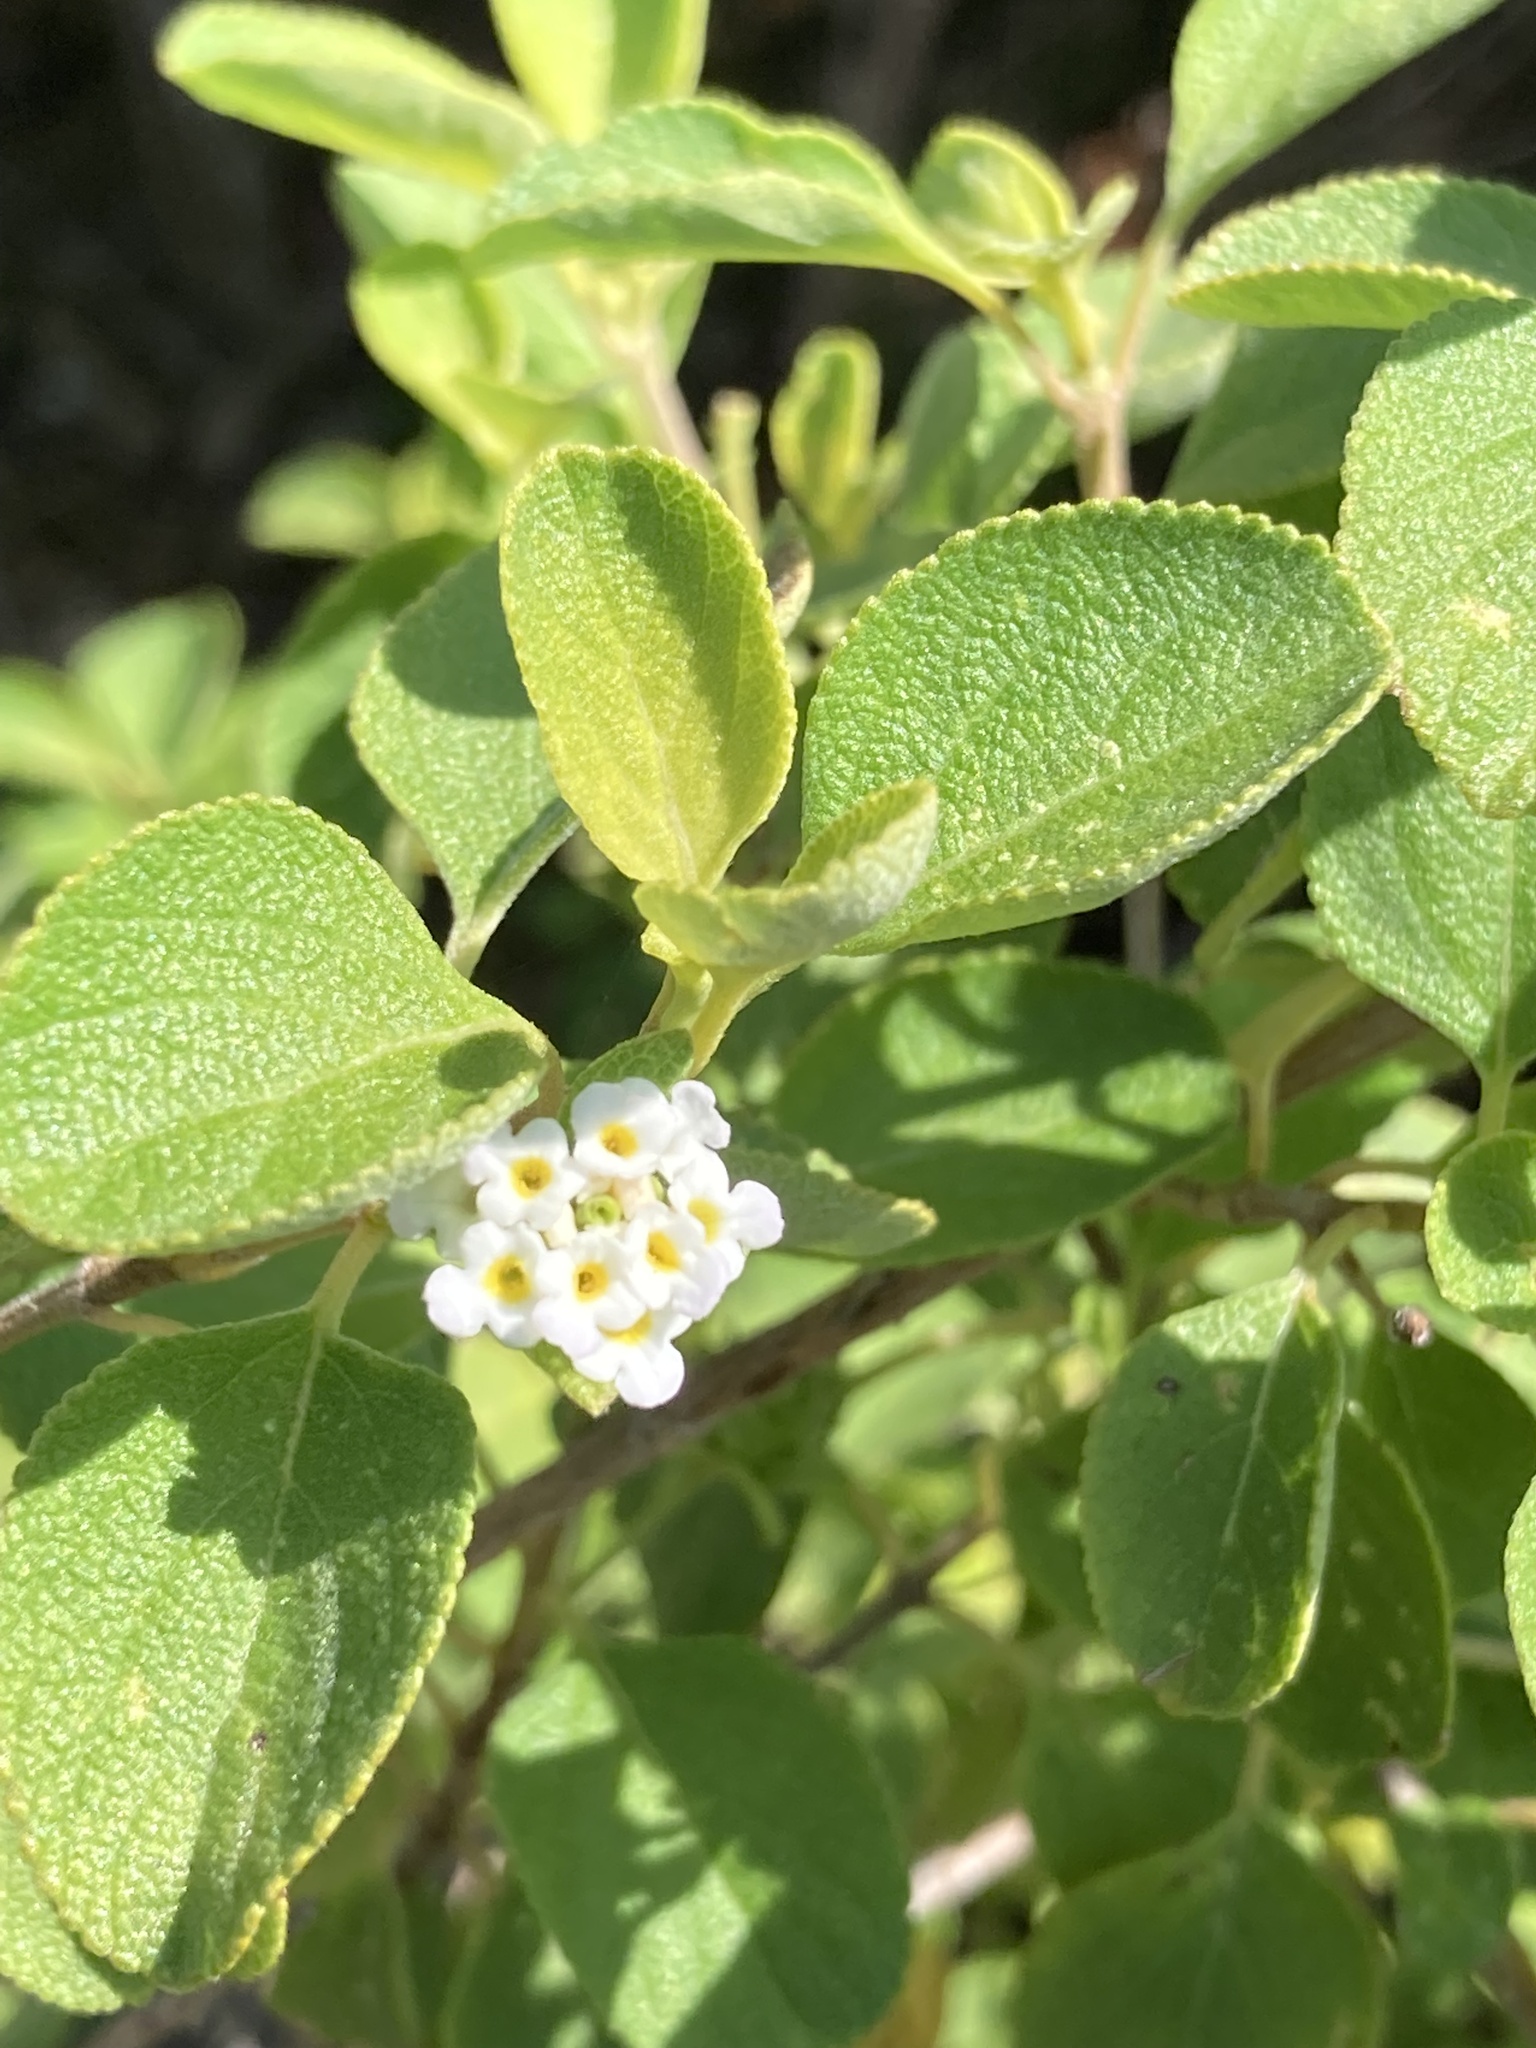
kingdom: Plantae
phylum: Tracheophyta
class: Magnoliopsida
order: Lamiales
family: Verbenaceae
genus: Lantana
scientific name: Lantana involucrata
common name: Black sage
